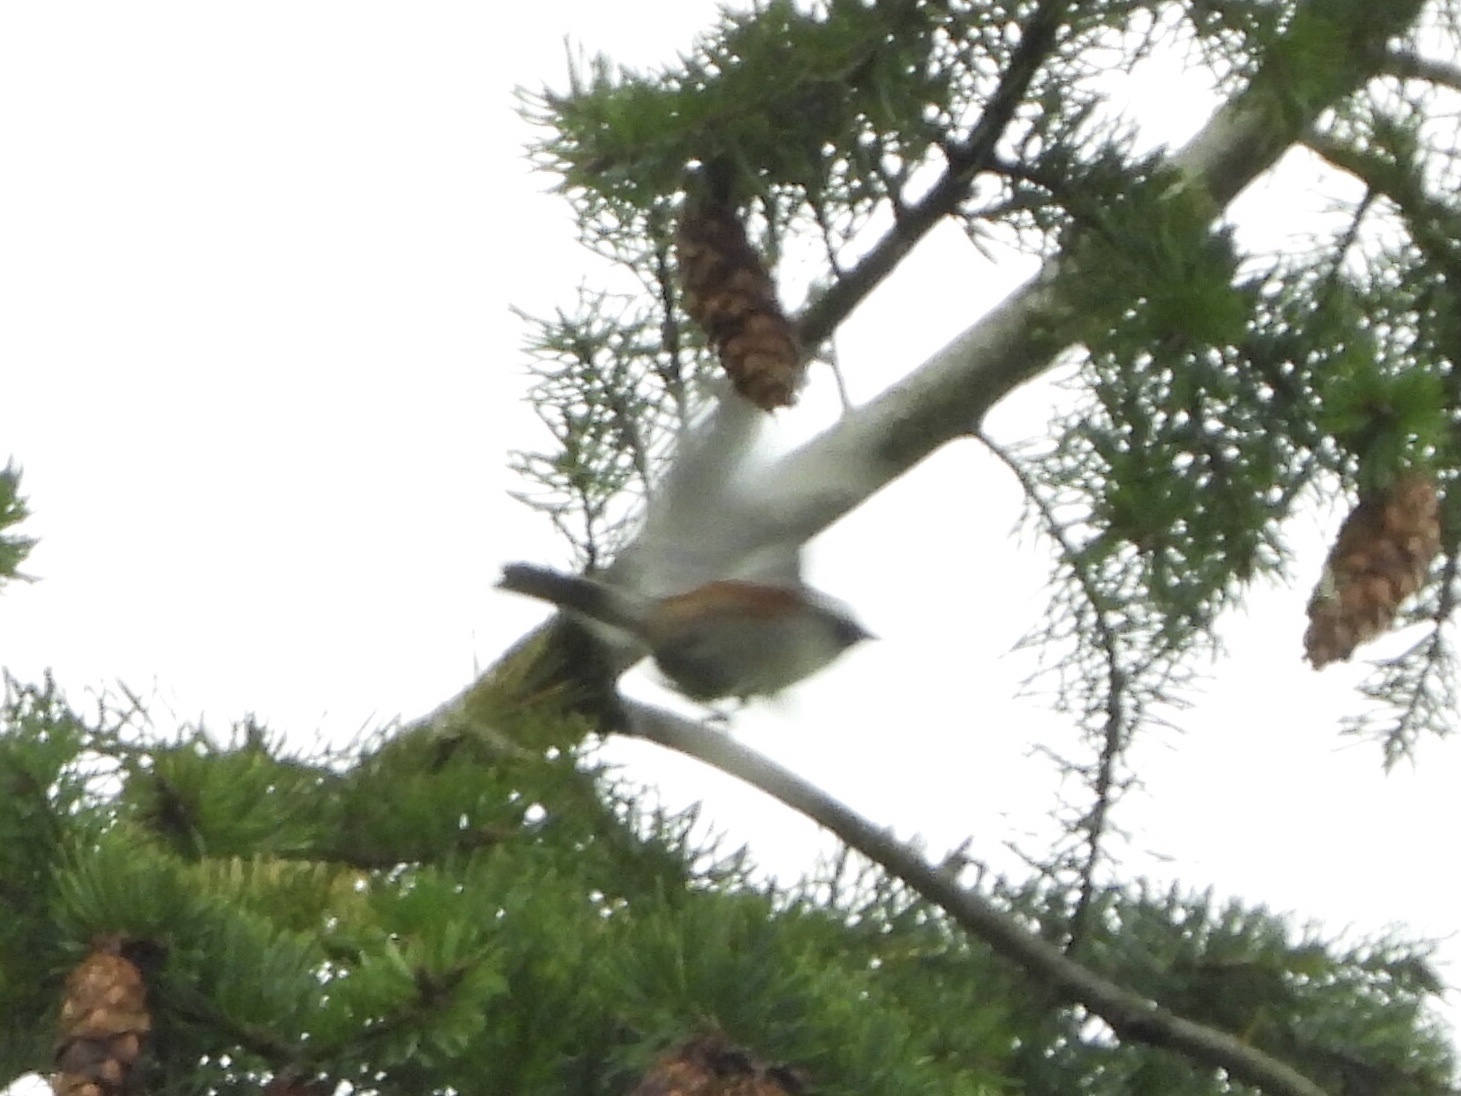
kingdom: Animalia
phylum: Chordata
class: Aves
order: Passeriformes
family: Paridae
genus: Poecile
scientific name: Poecile rufescens
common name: Chestnut-backed chickadee
